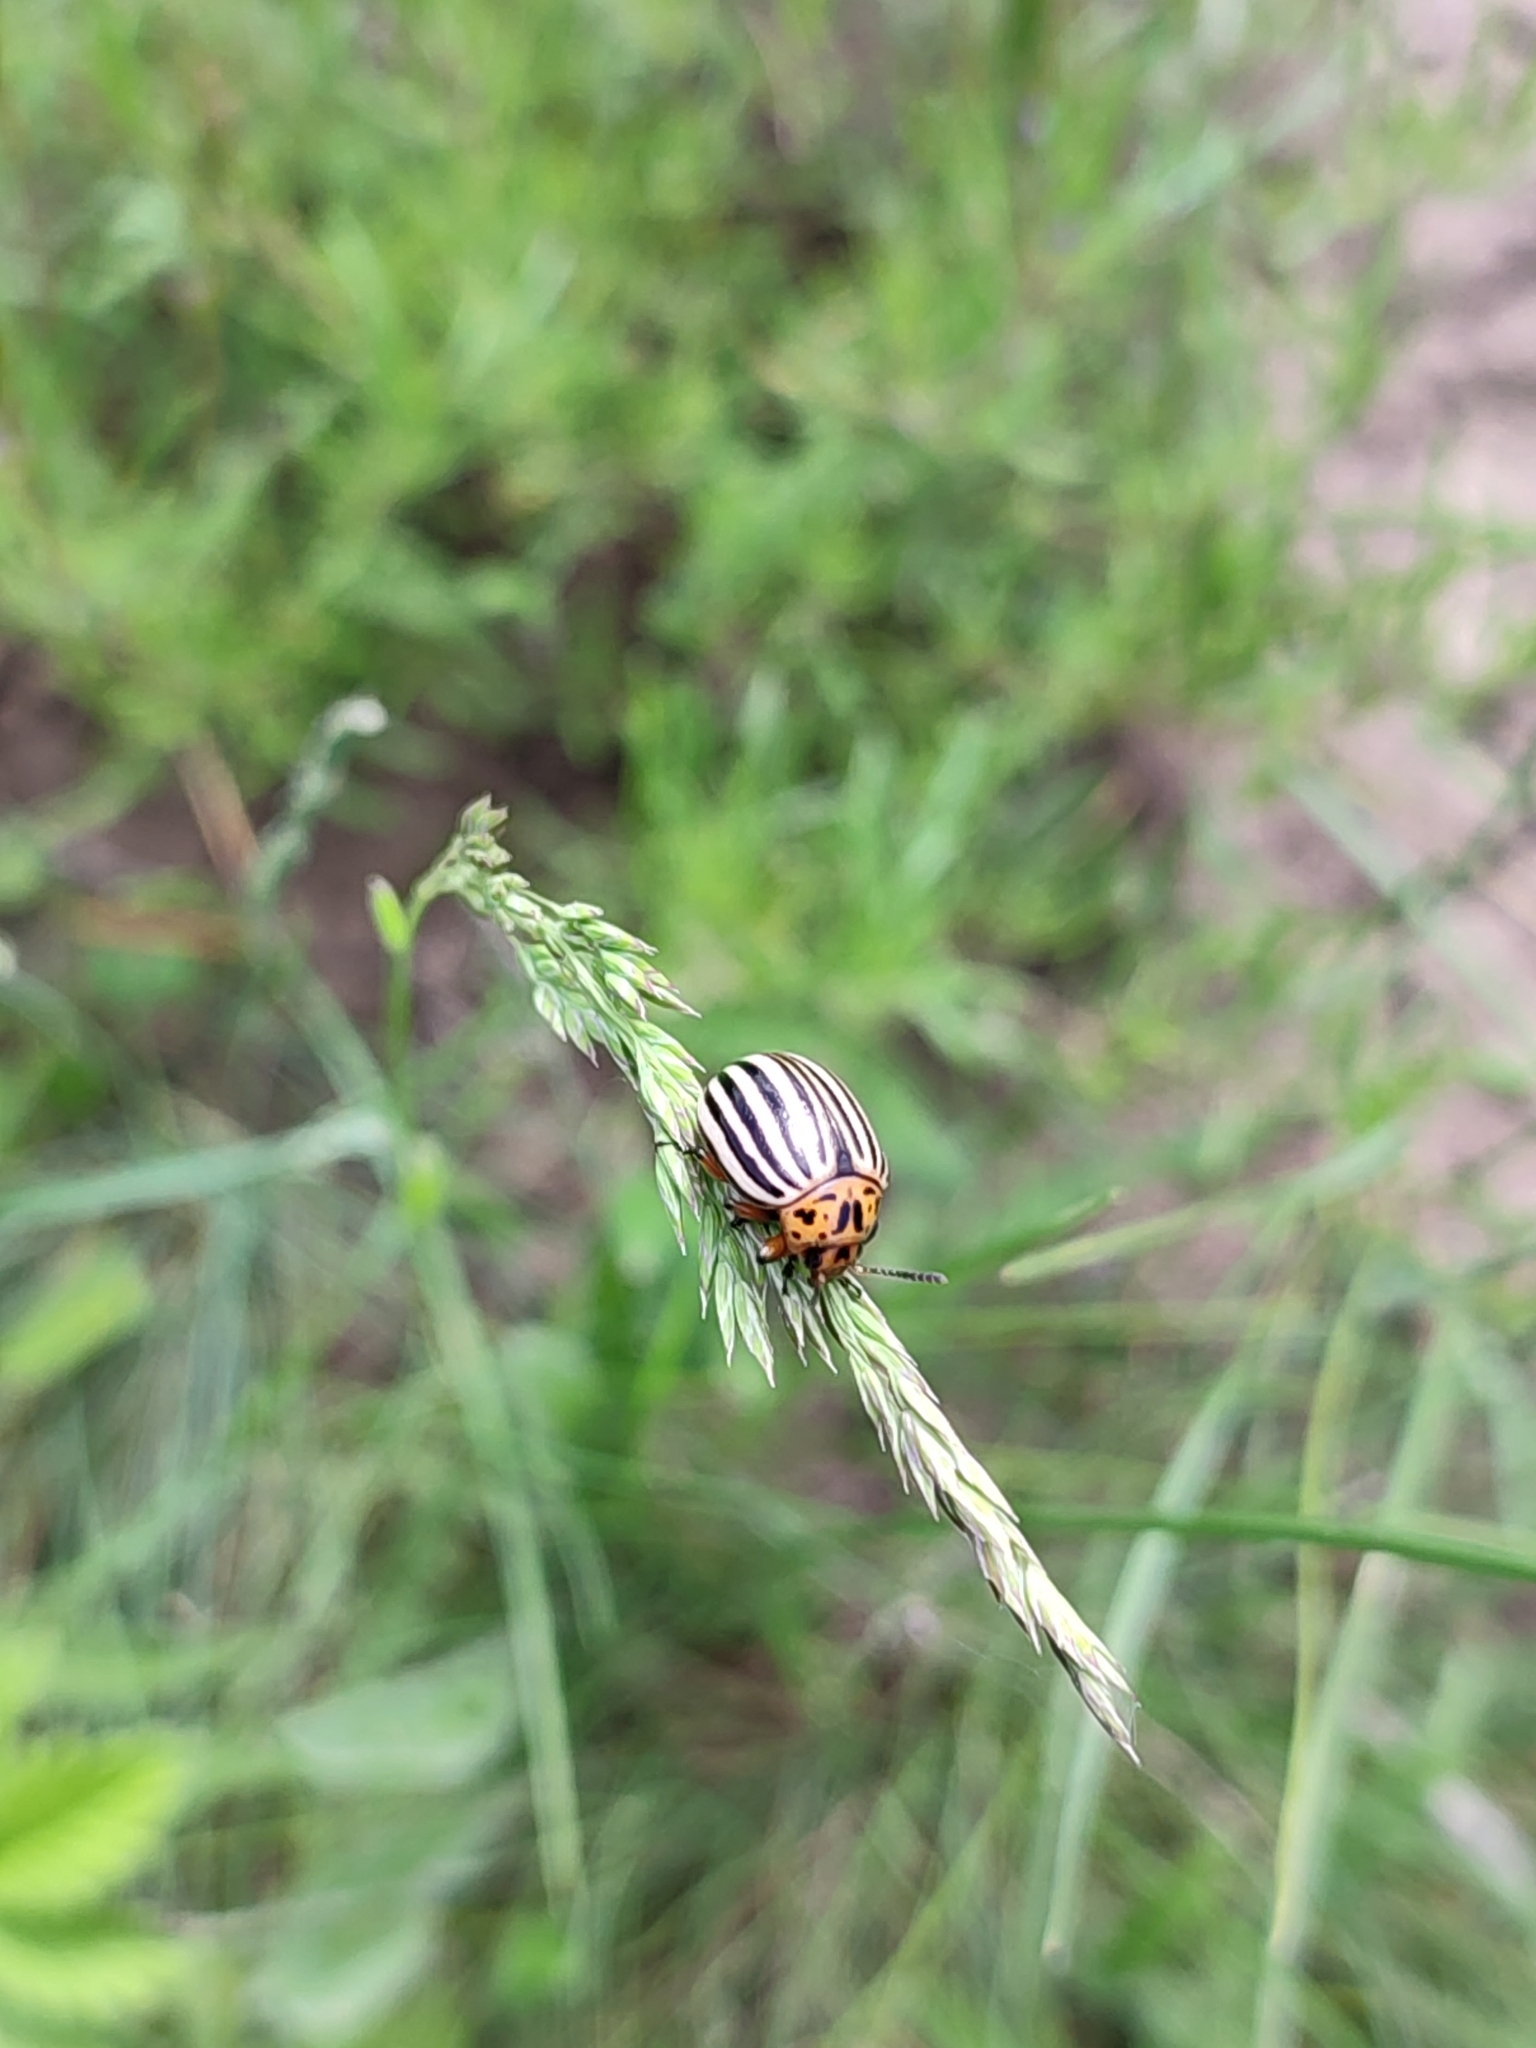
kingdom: Animalia
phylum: Arthropoda
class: Insecta
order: Coleoptera
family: Chrysomelidae
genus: Leptinotarsa
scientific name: Leptinotarsa decemlineata
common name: Colorado potato beetle
